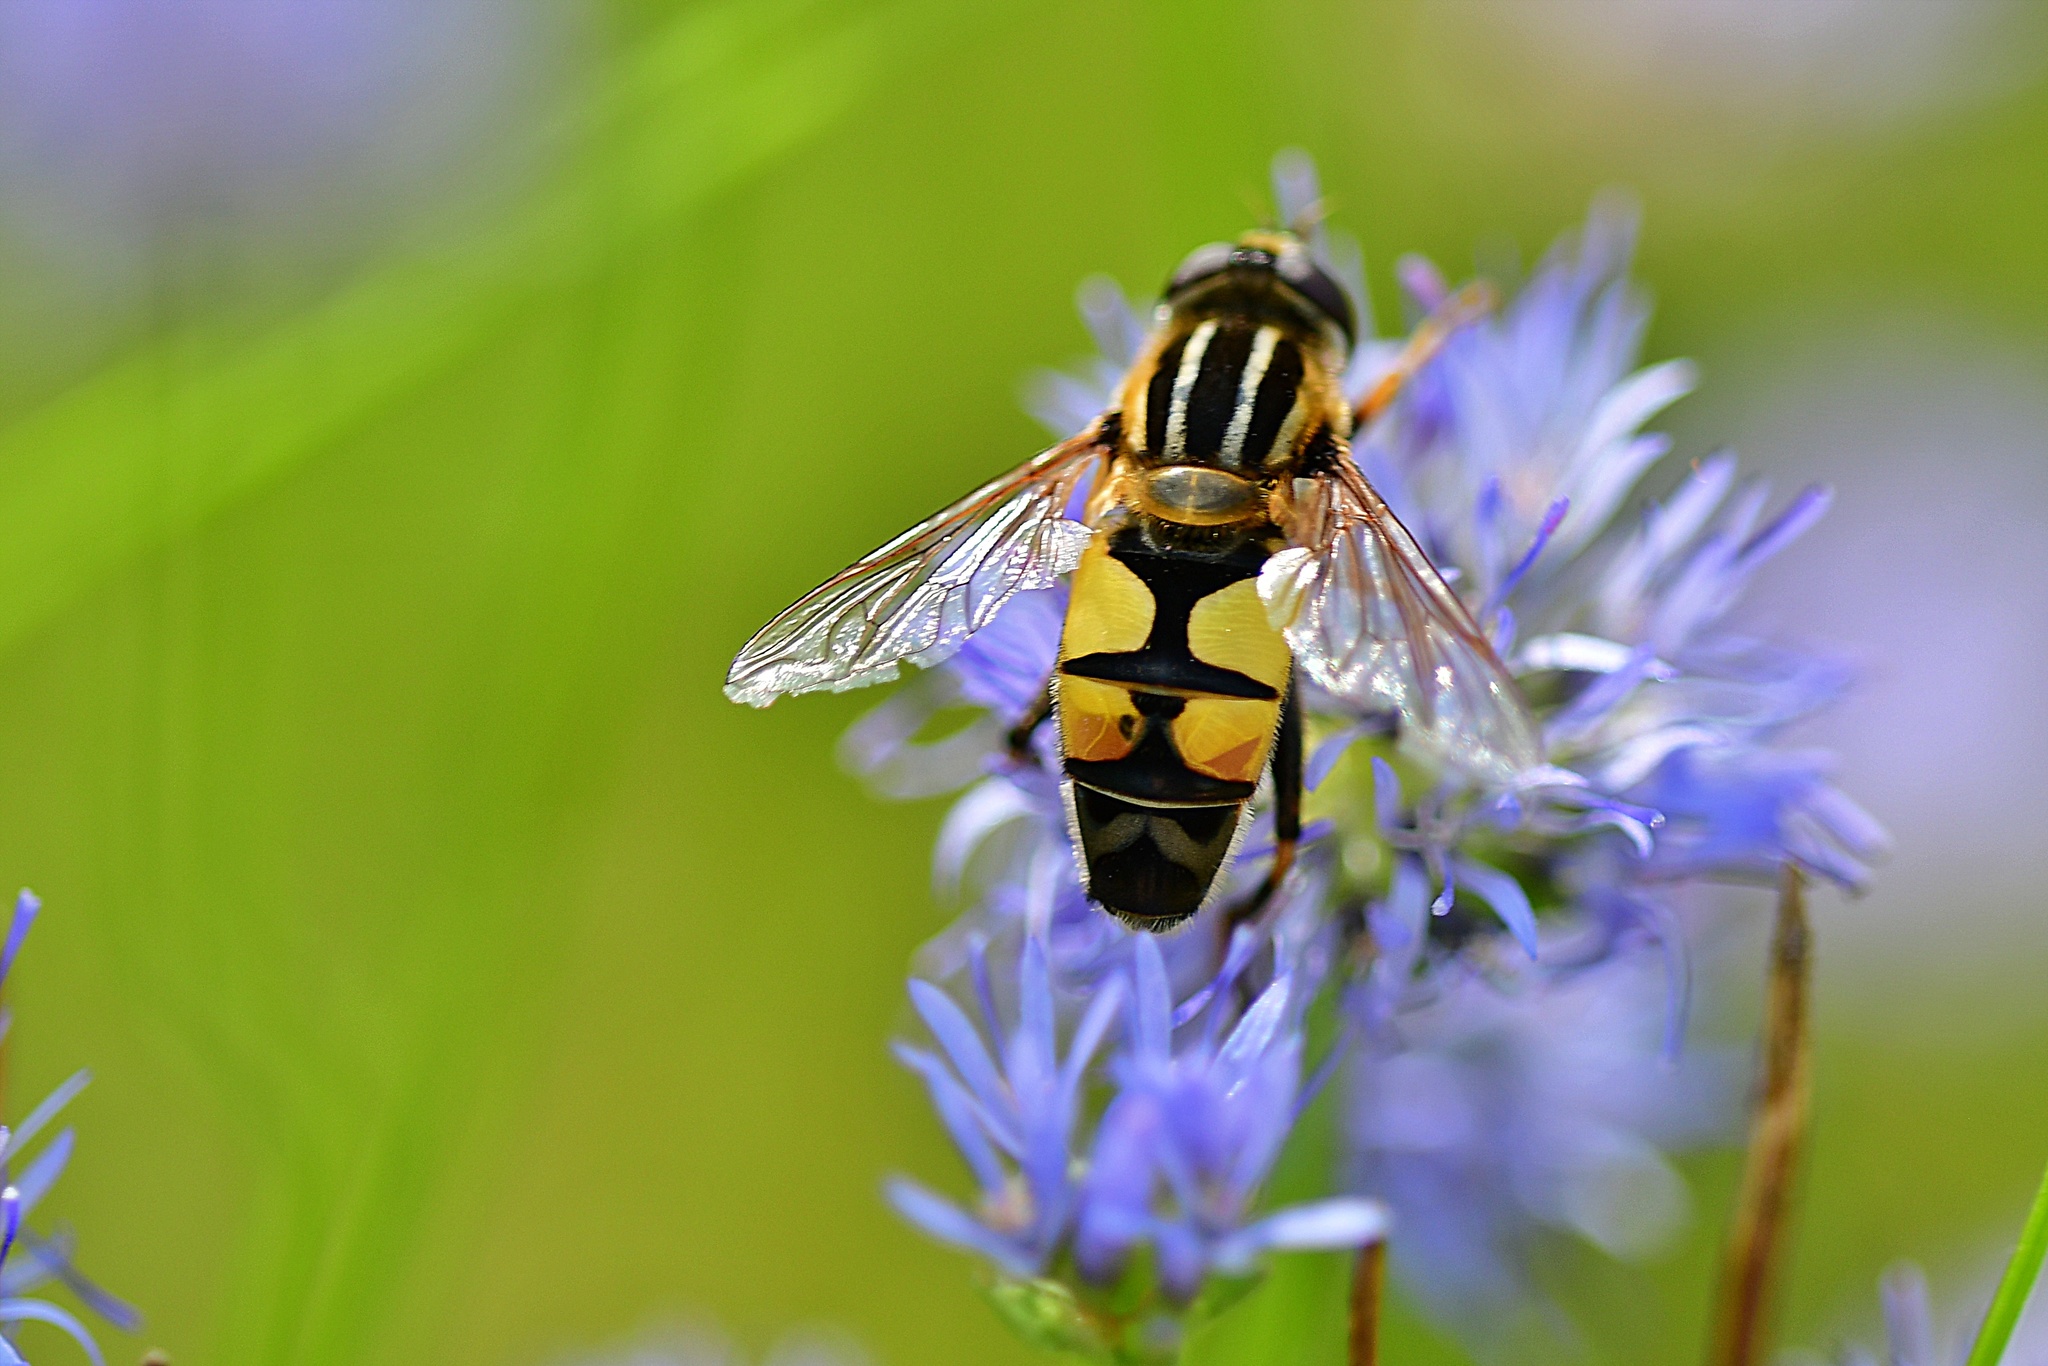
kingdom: Animalia
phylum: Arthropoda
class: Insecta
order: Diptera
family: Syrphidae
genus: Helophilus
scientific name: Helophilus trivittatus
